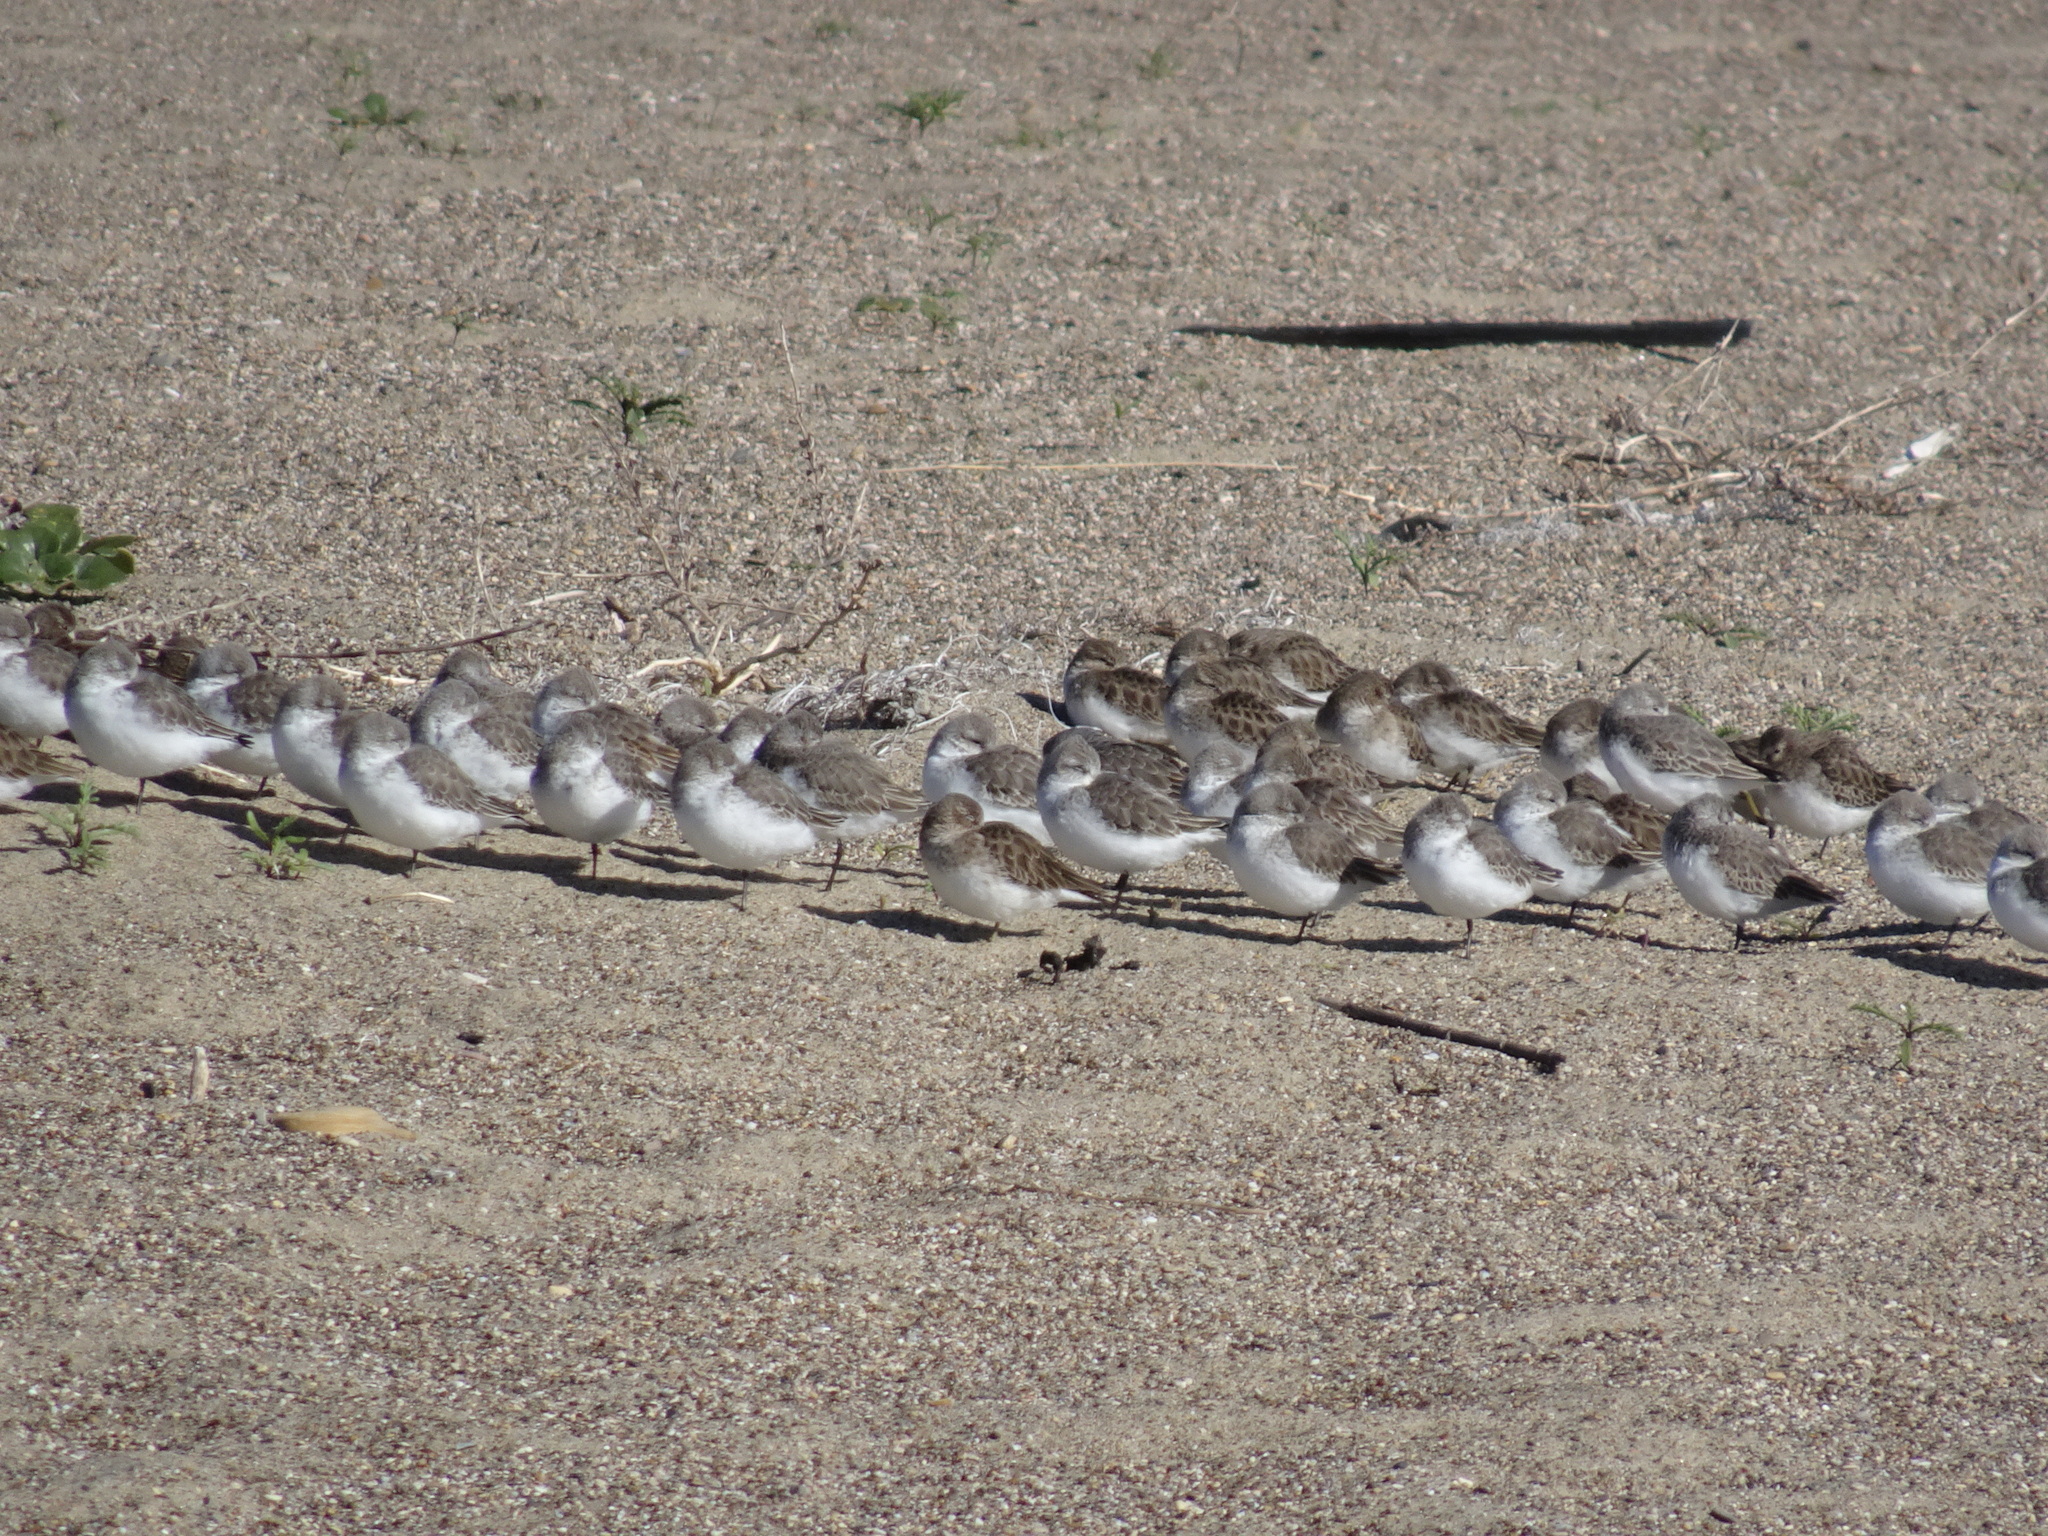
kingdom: Animalia
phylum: Chordata
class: Aves
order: Charadriiformes
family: Scolopacidae
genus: Calidris
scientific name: Calidris mauri
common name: Western sandpiper
